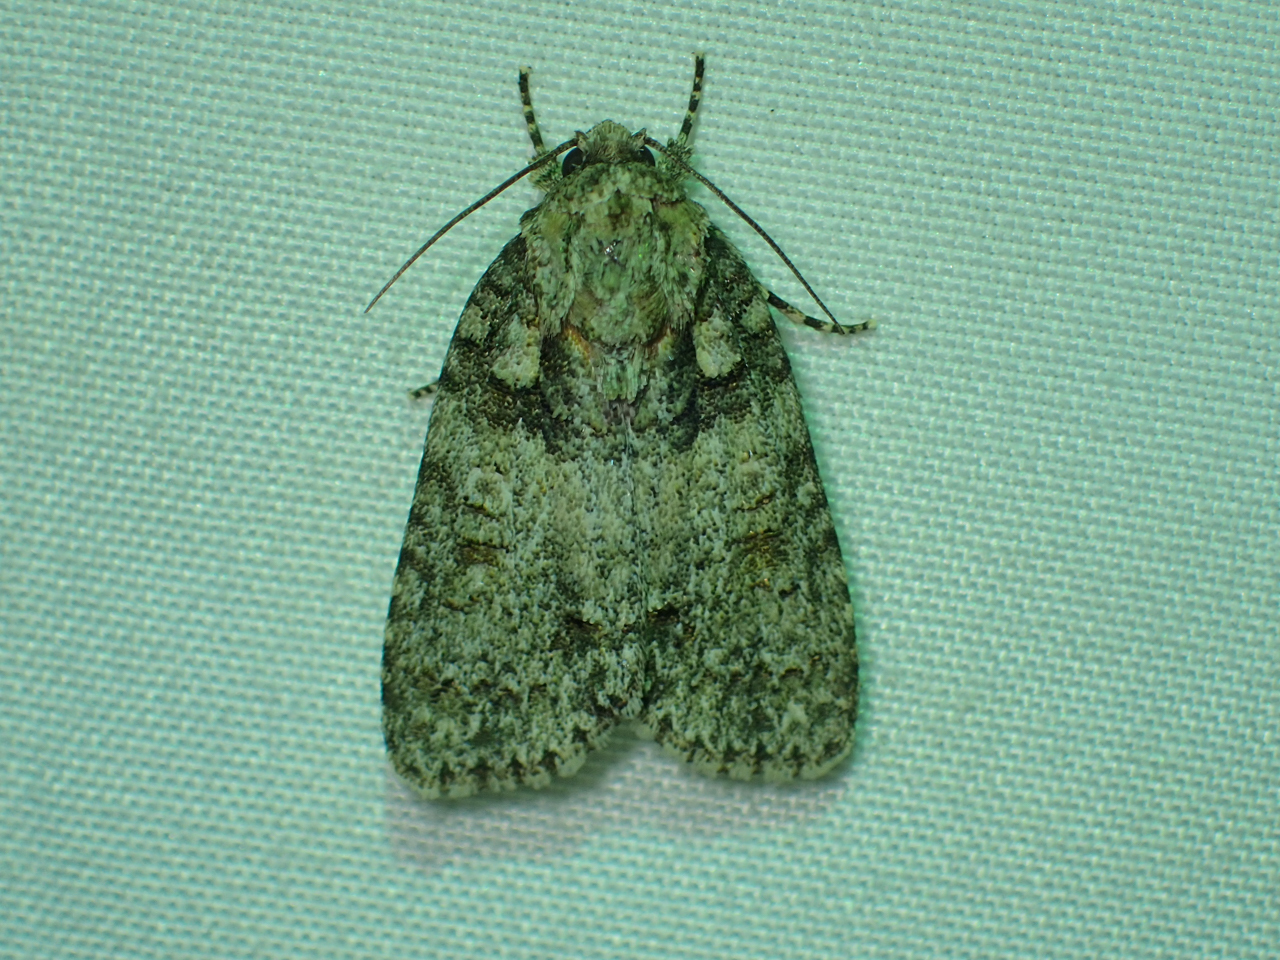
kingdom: Animalia
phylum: Arthropoda
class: Insecta
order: Lepidoptera
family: Noctuidae
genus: Acronicta
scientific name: Acronicta increta
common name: Eclipsed oak dagger
